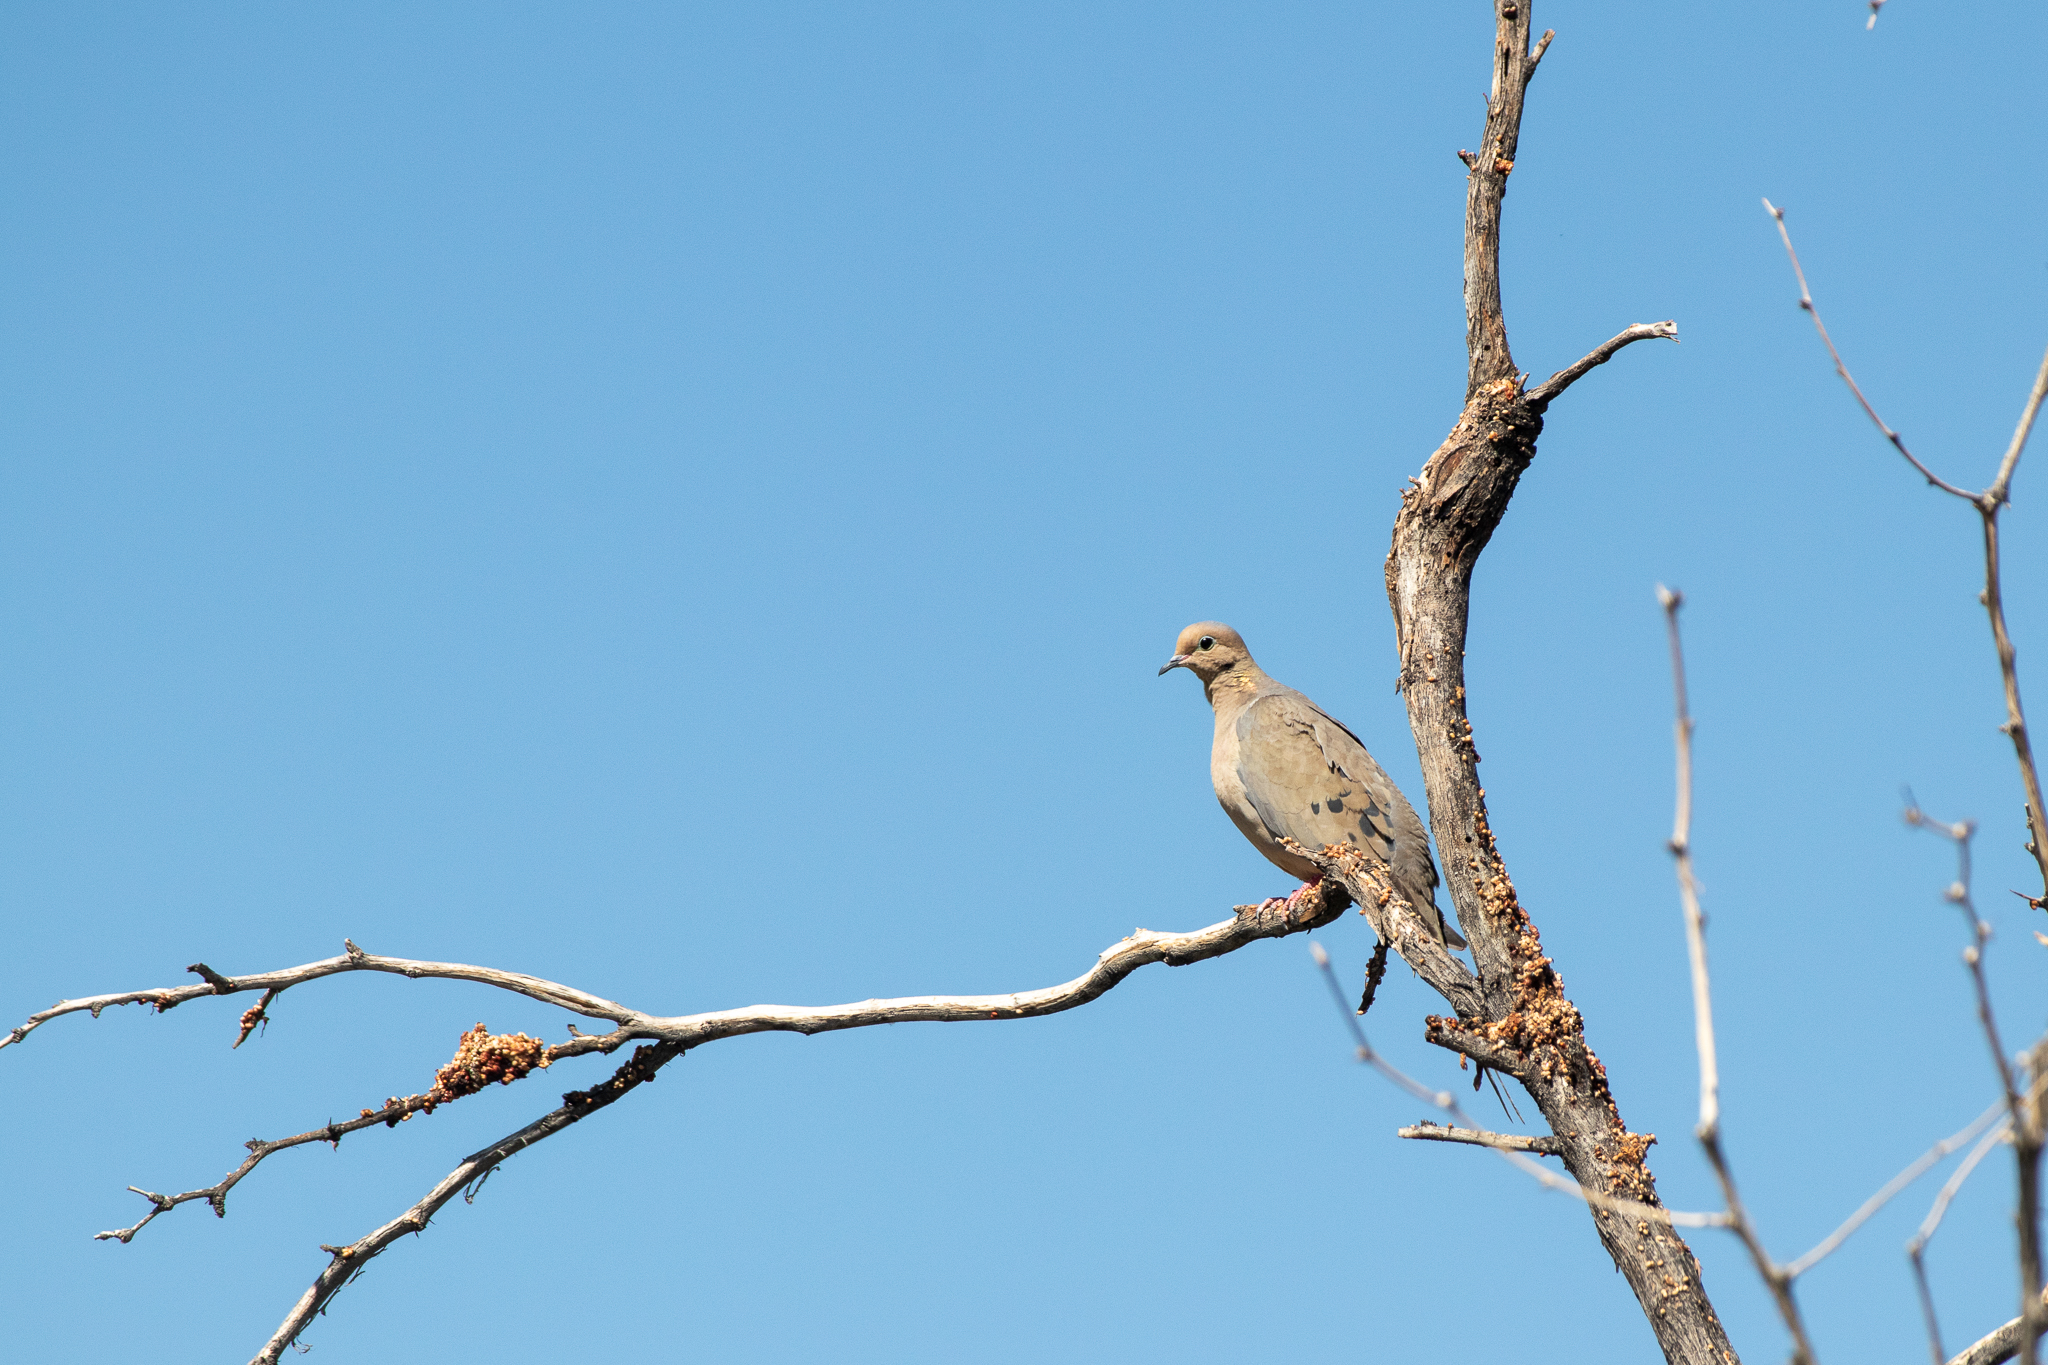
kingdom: Animalia
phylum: Chordata
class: Aves
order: Columbiformes
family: Columbidae
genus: Zenaida
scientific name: Zenaida macroura
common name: Mourning dove
